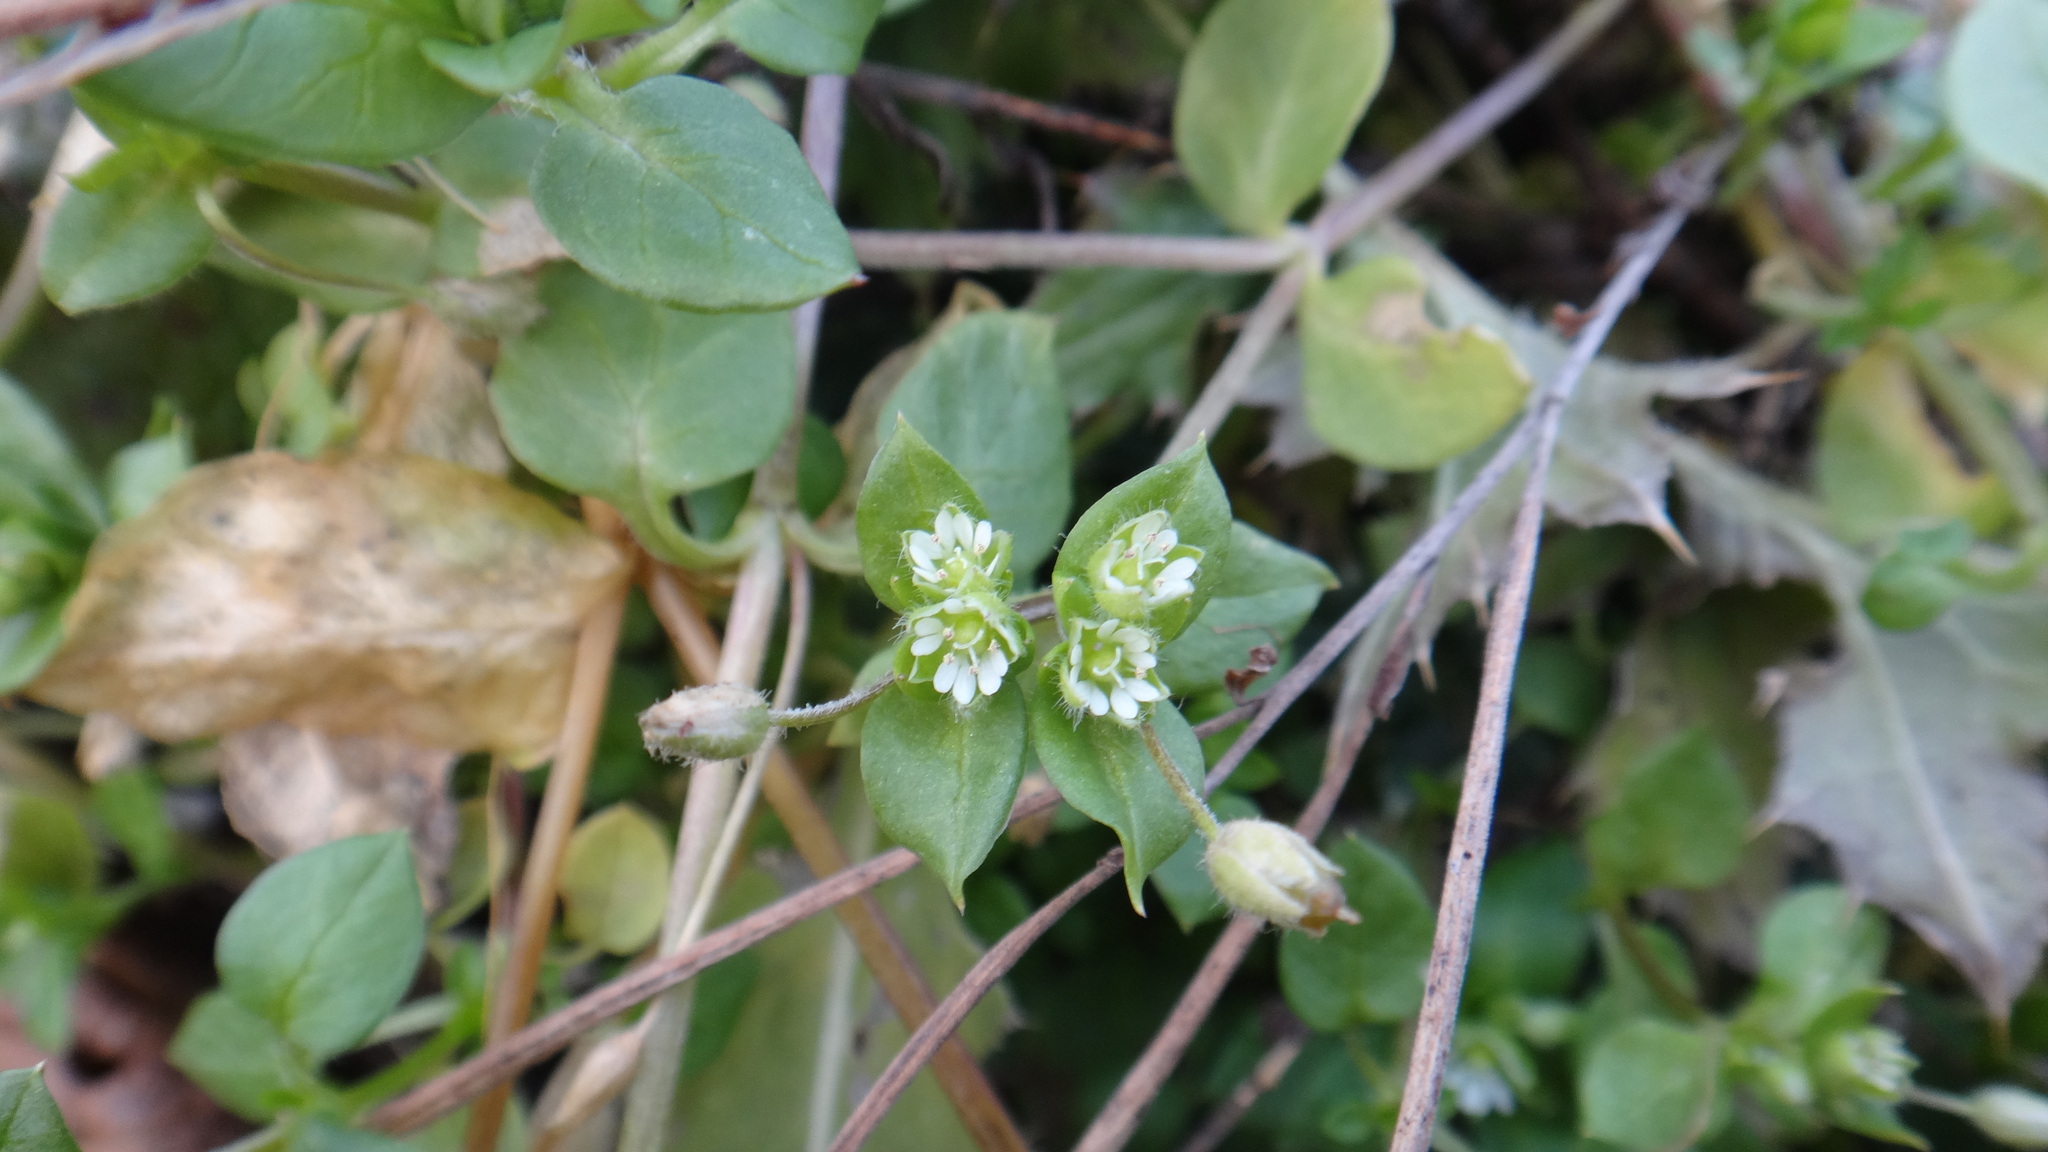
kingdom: Plantae
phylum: Tracheophyta
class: Magnoliopsida
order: Caryophyllales
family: Caryophyllaceae
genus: Stellaria
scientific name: Stellaria media
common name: Common chickweed
